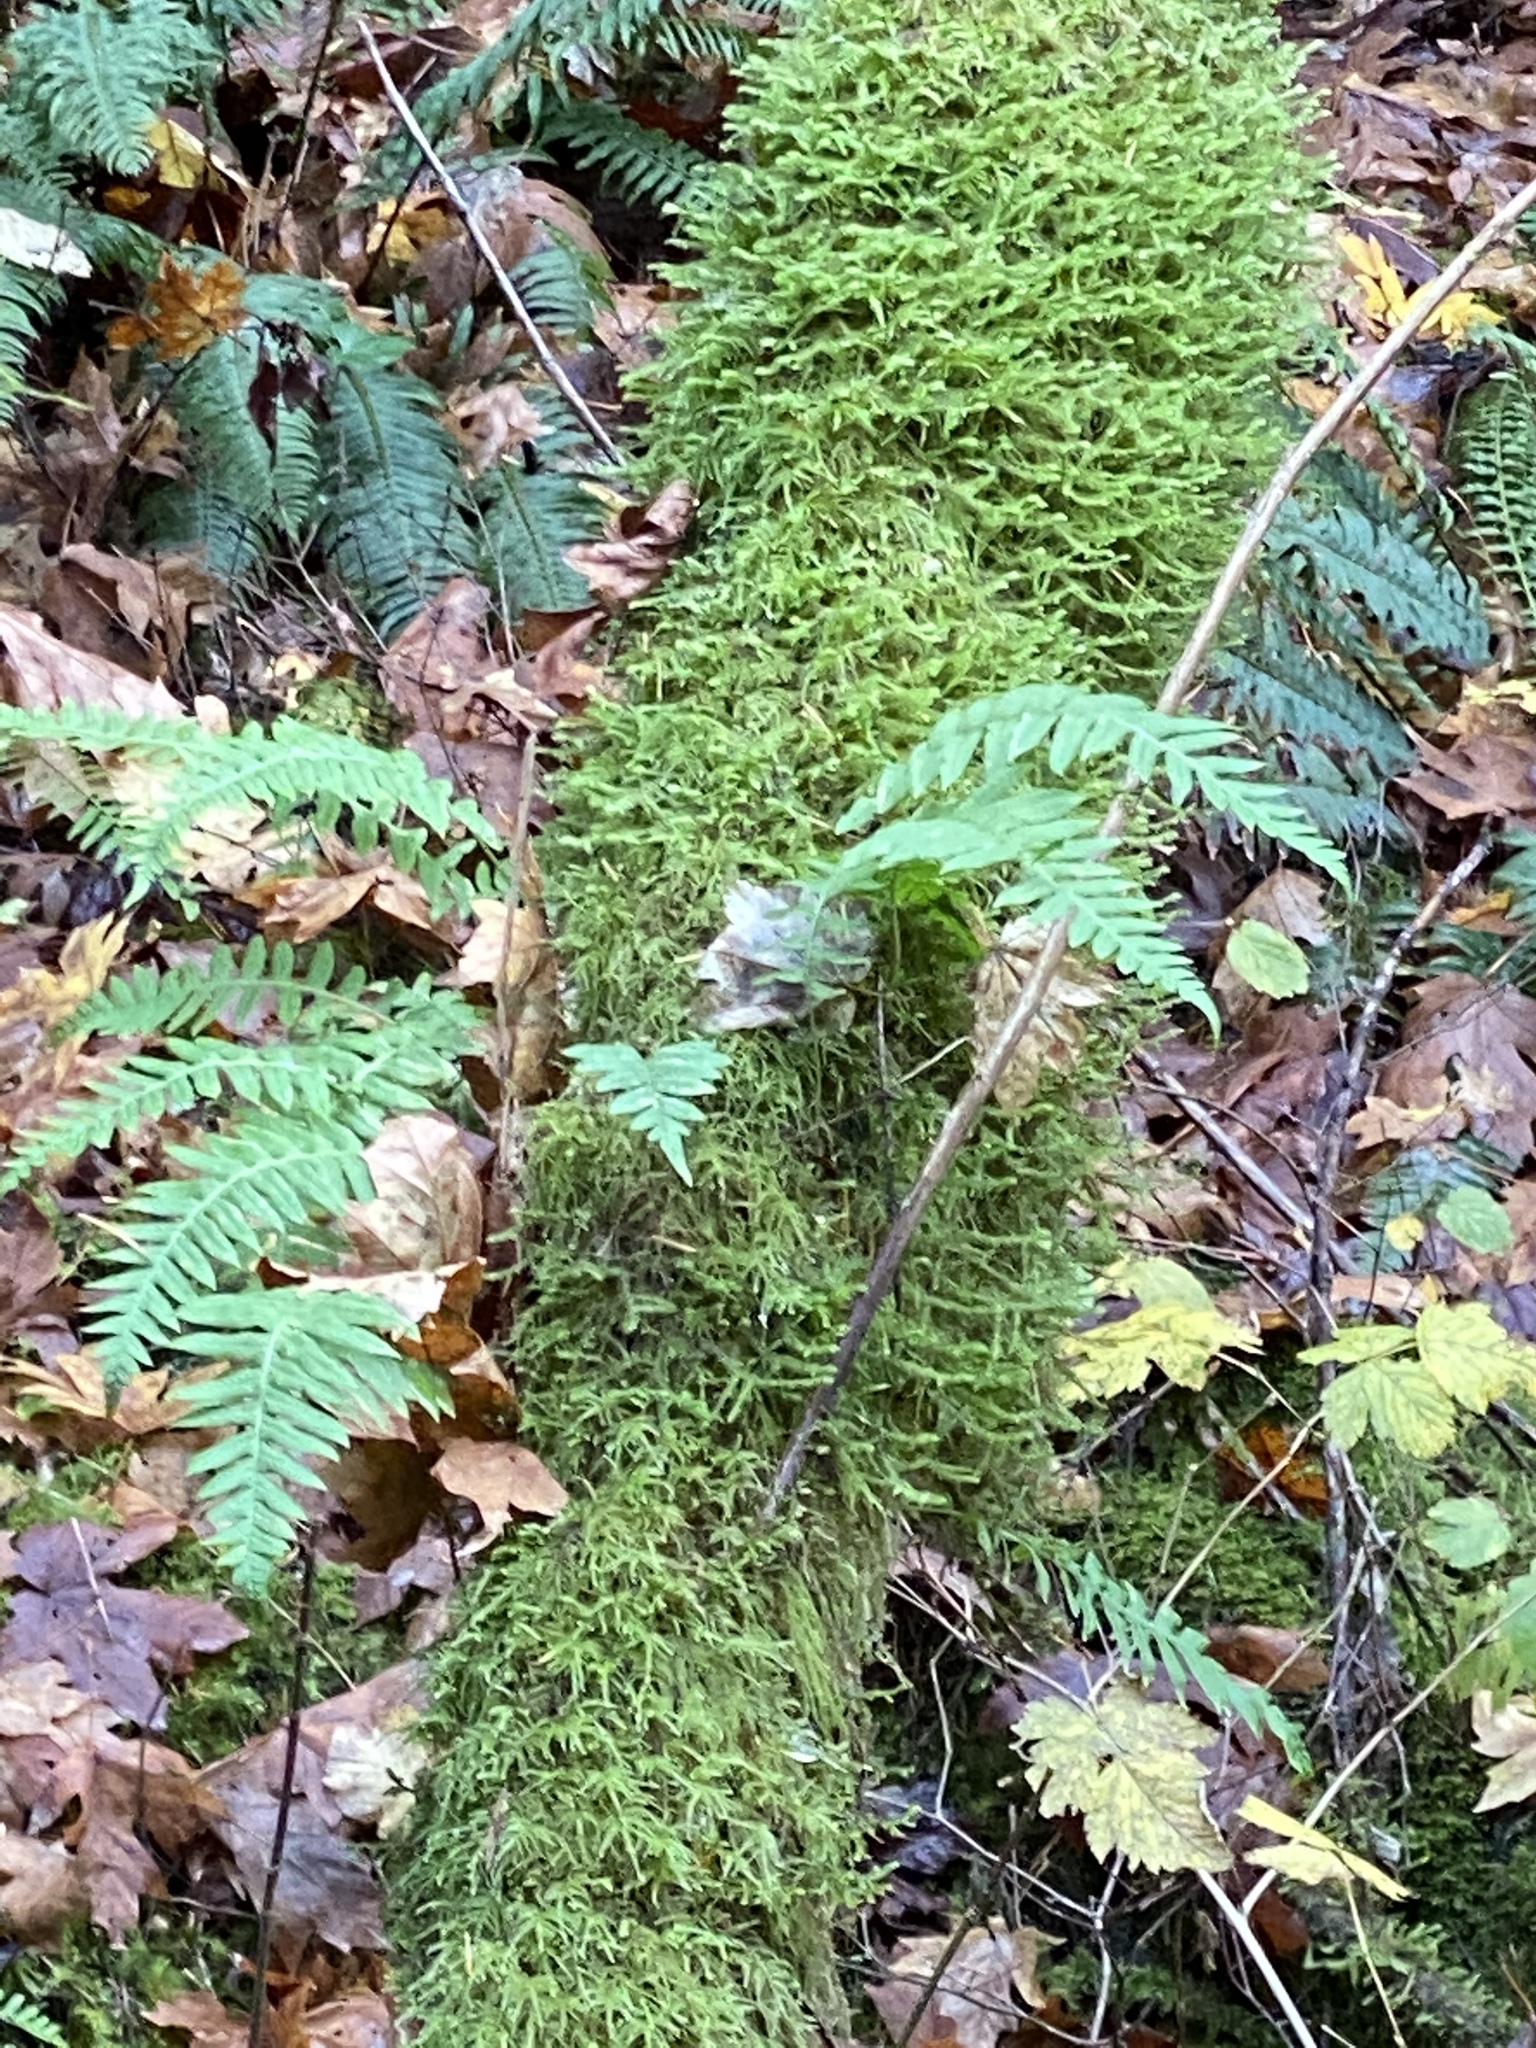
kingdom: Plantae
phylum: Tracheophyta
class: Polypodiopsida
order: Polypodiales
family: Polypodiaceae
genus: Polypodium
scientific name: Polypodium glycyrrhiza
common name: Licorice fern
